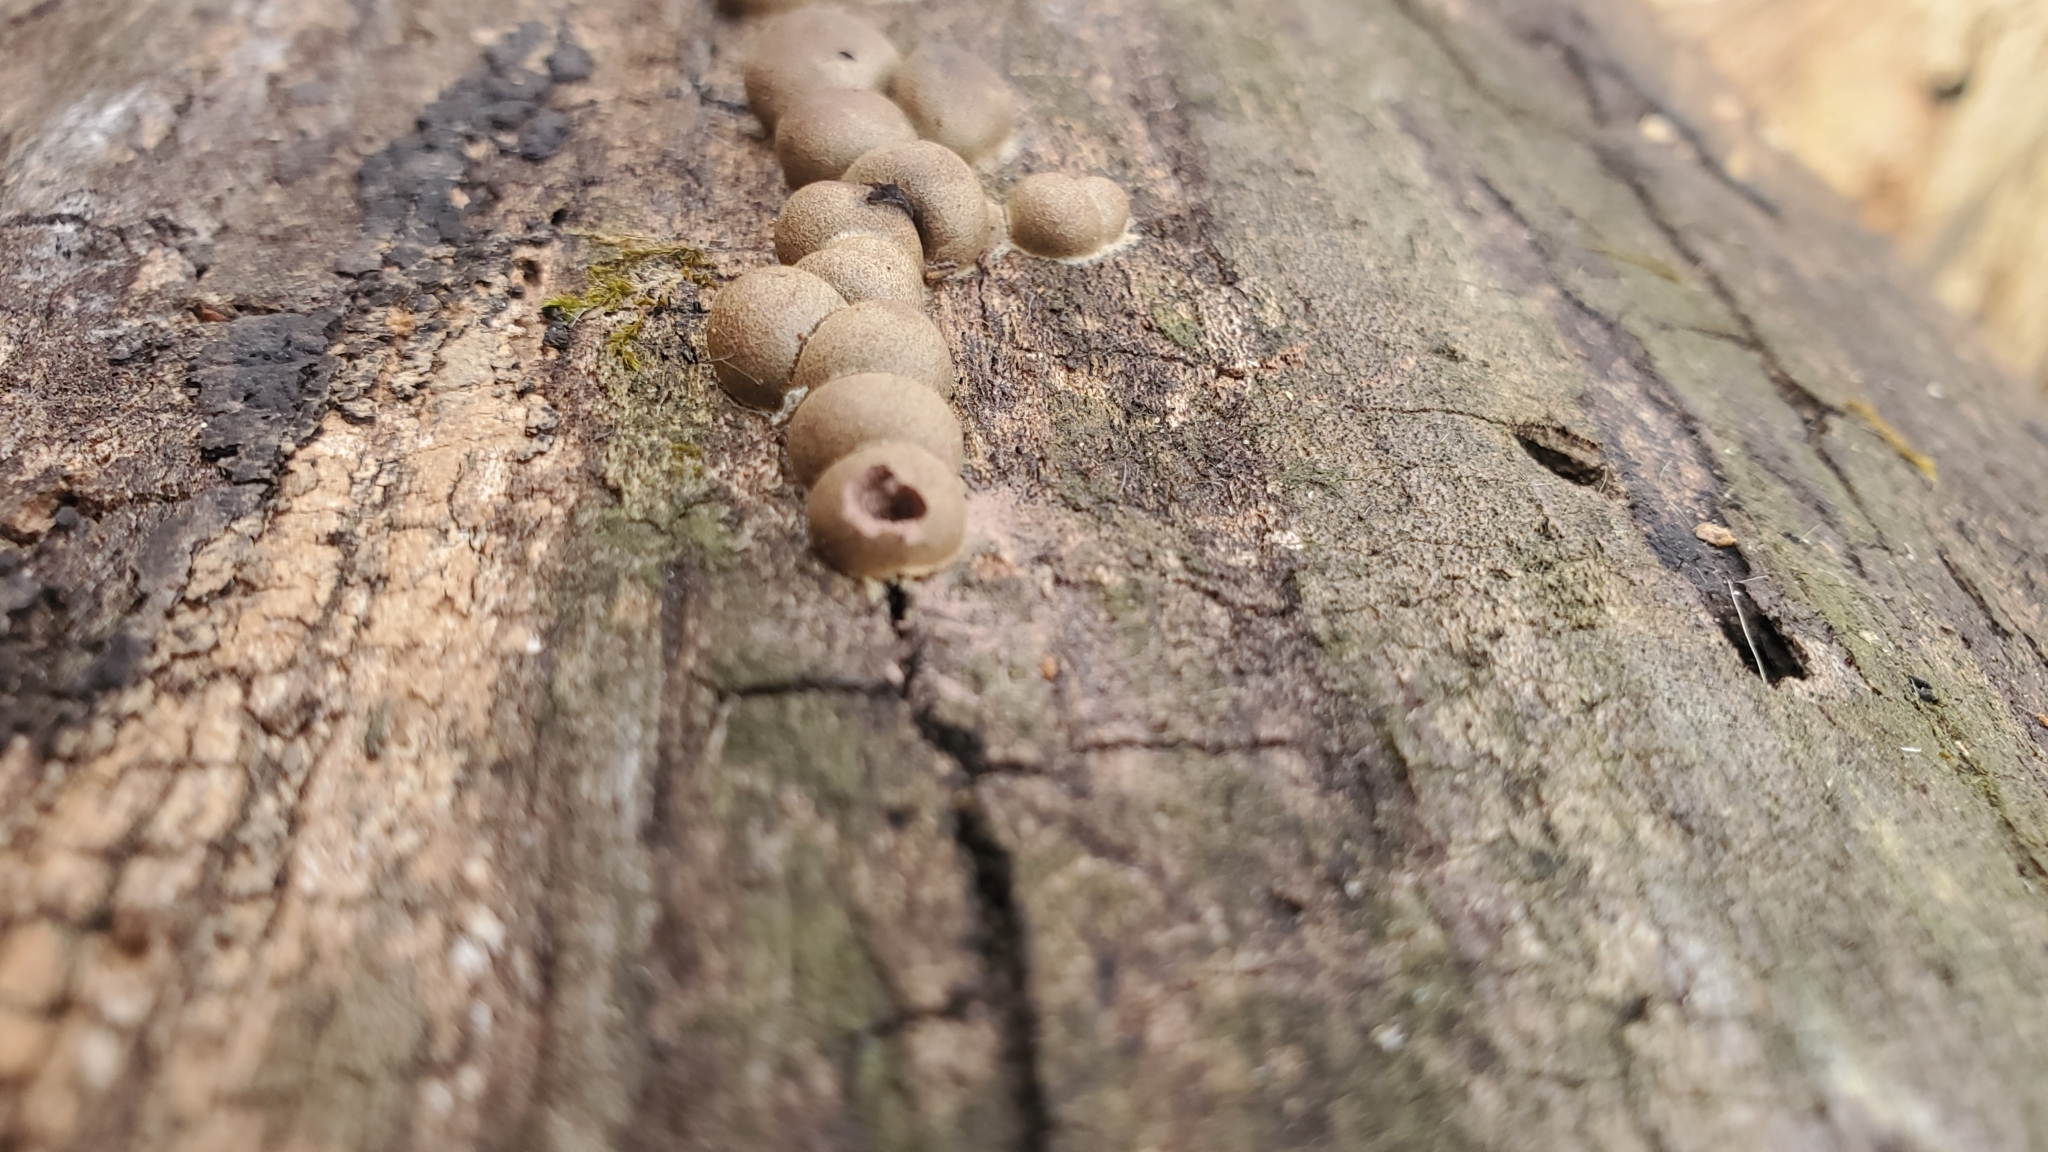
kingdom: Protozoa
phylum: Mycetozoa
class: Myxomycetes
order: Cribrariales
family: Tubiferaceae
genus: Lycogala
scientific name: Lycogala epidendrum
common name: Wolf's milk
